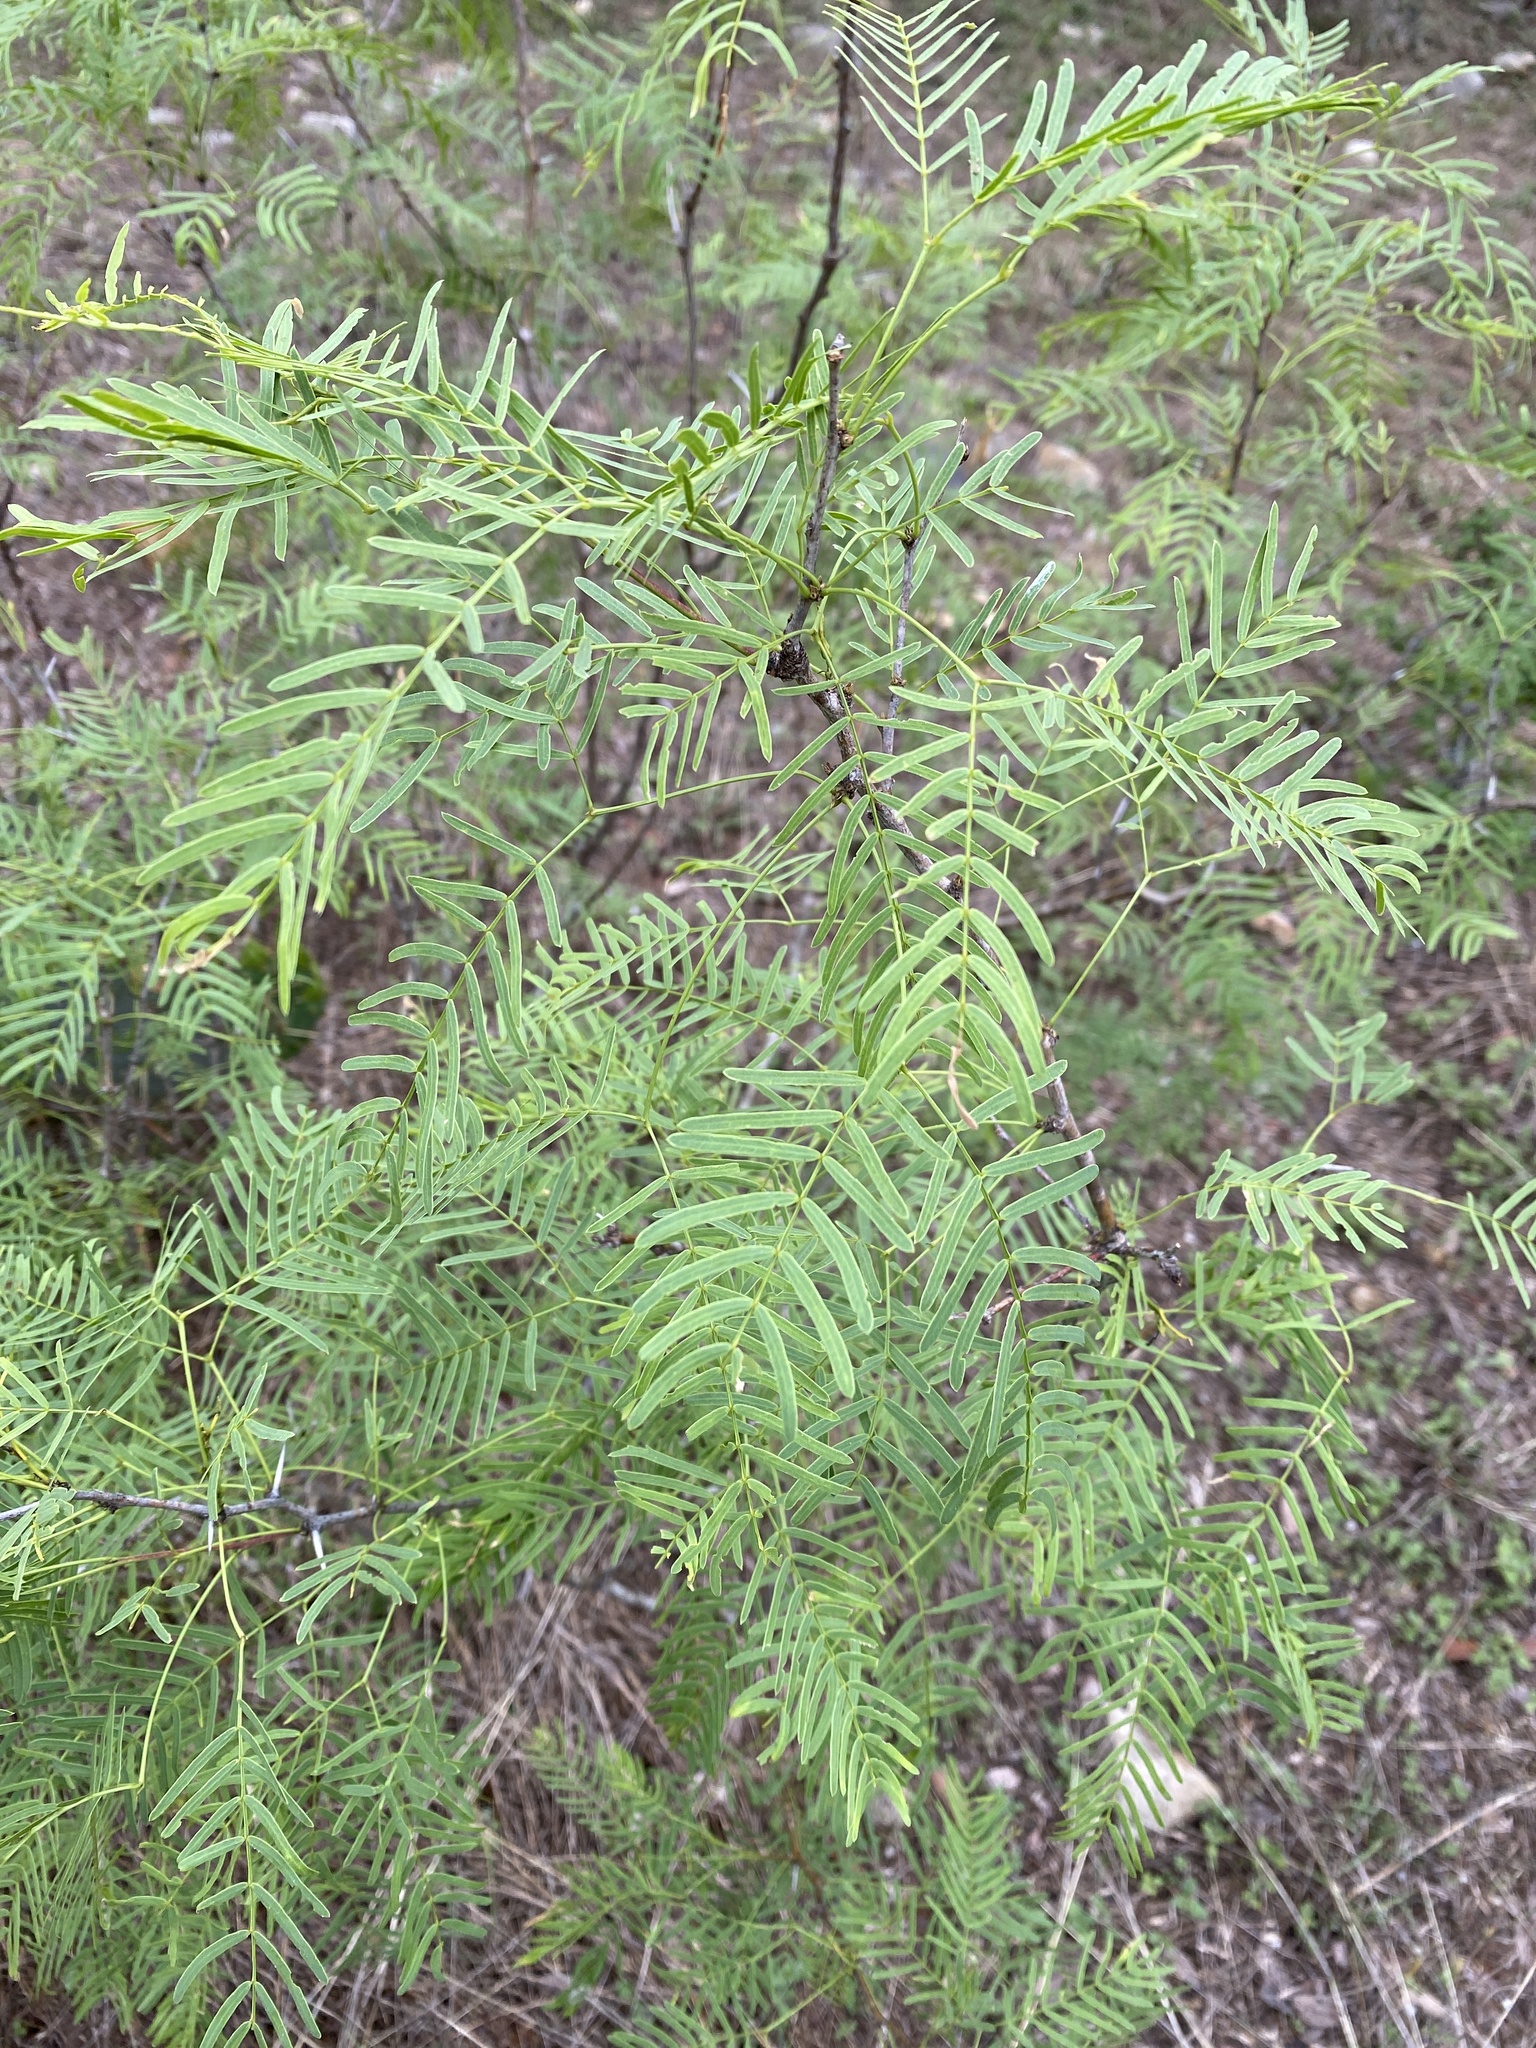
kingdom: Plantae
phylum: Tracheophyta
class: Magnoliopsida
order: Fabales
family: Fabaceae
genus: Prosopis
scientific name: Prosopis glandulosa
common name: Honey mesquite
